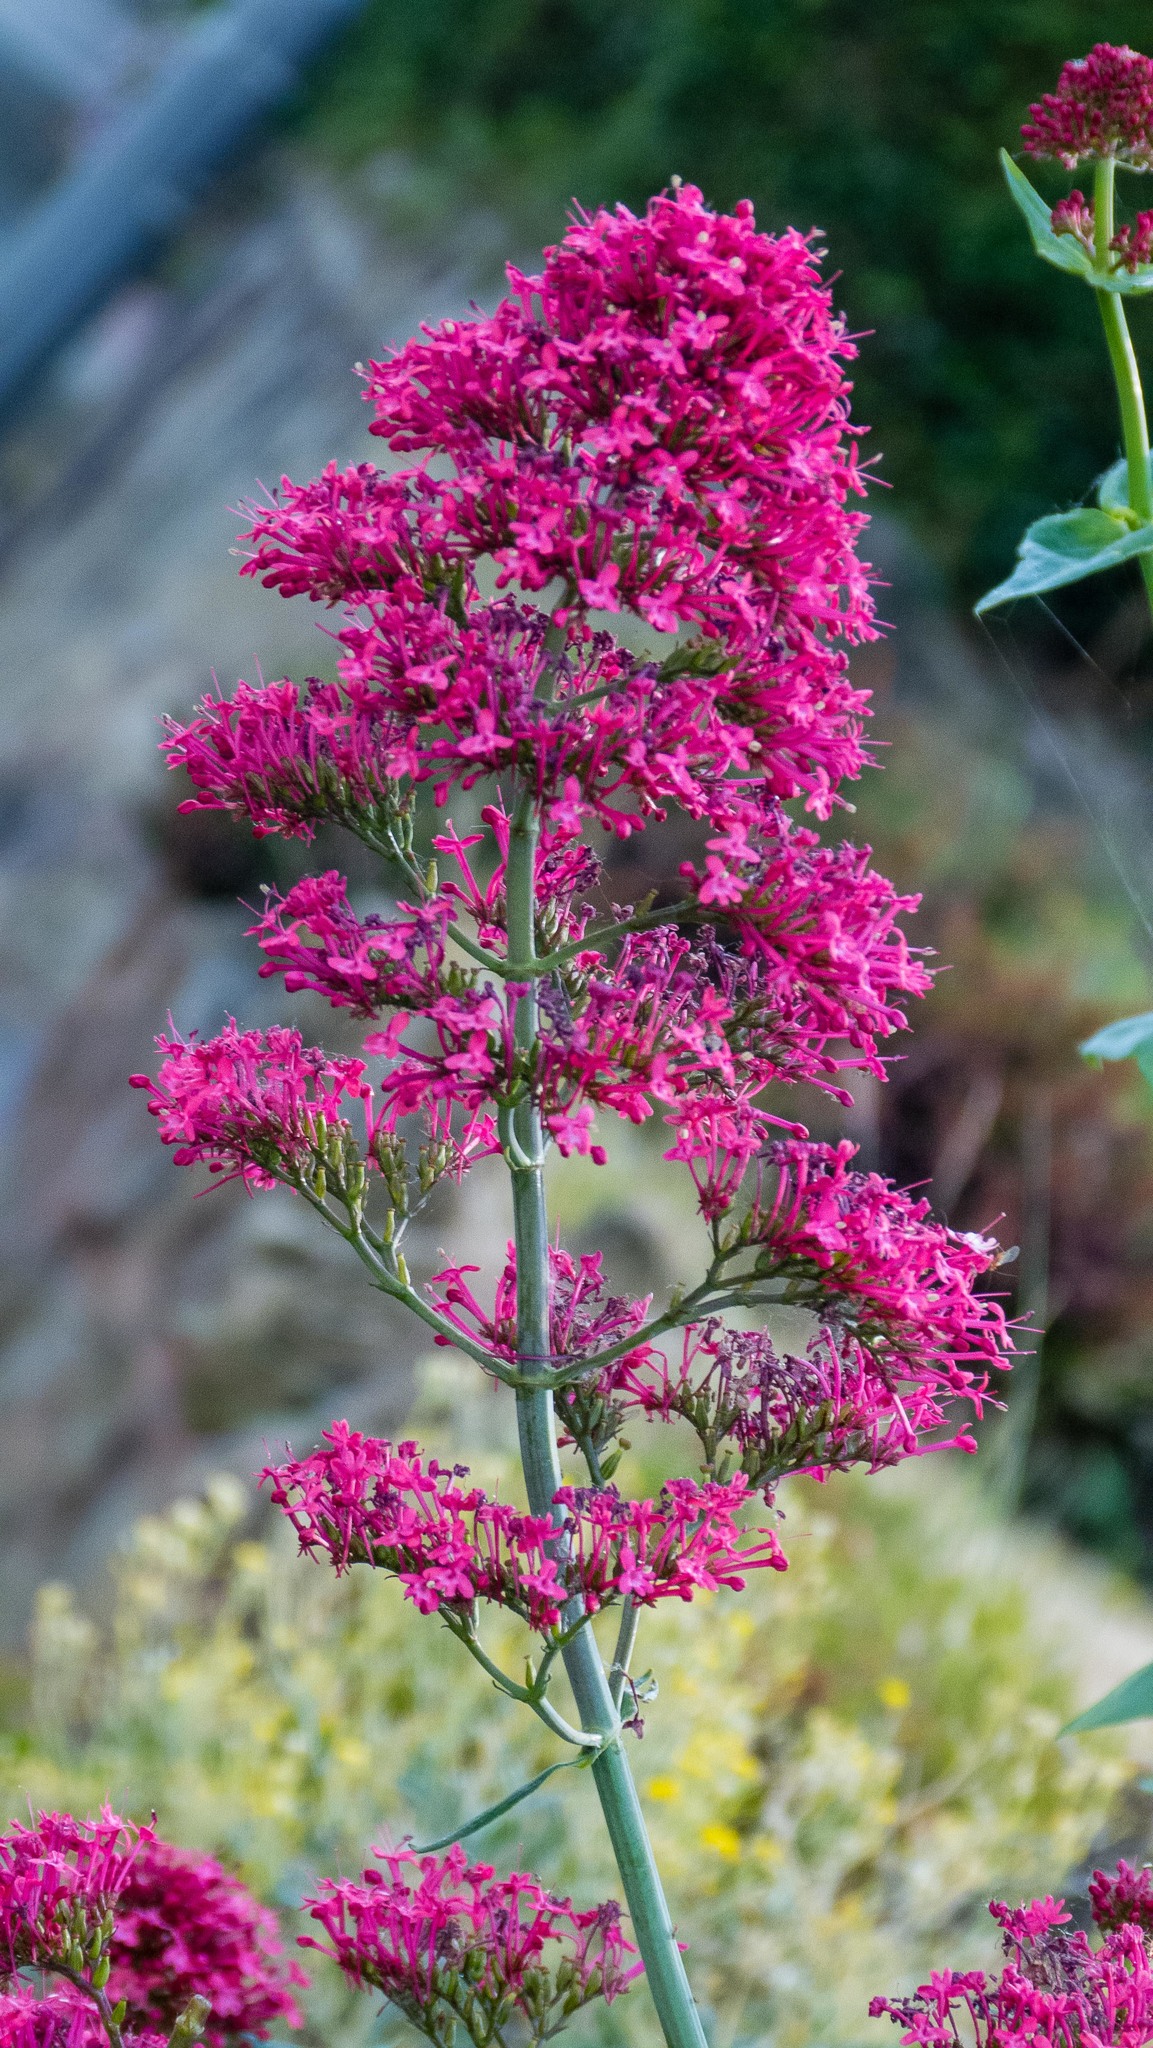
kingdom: Plantae
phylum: Tracheophyta
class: Magnoliopsida
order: Dipsacales
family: Caprifoliaceae
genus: Centranthus
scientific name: Centranthus ruber
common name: Red valerian
